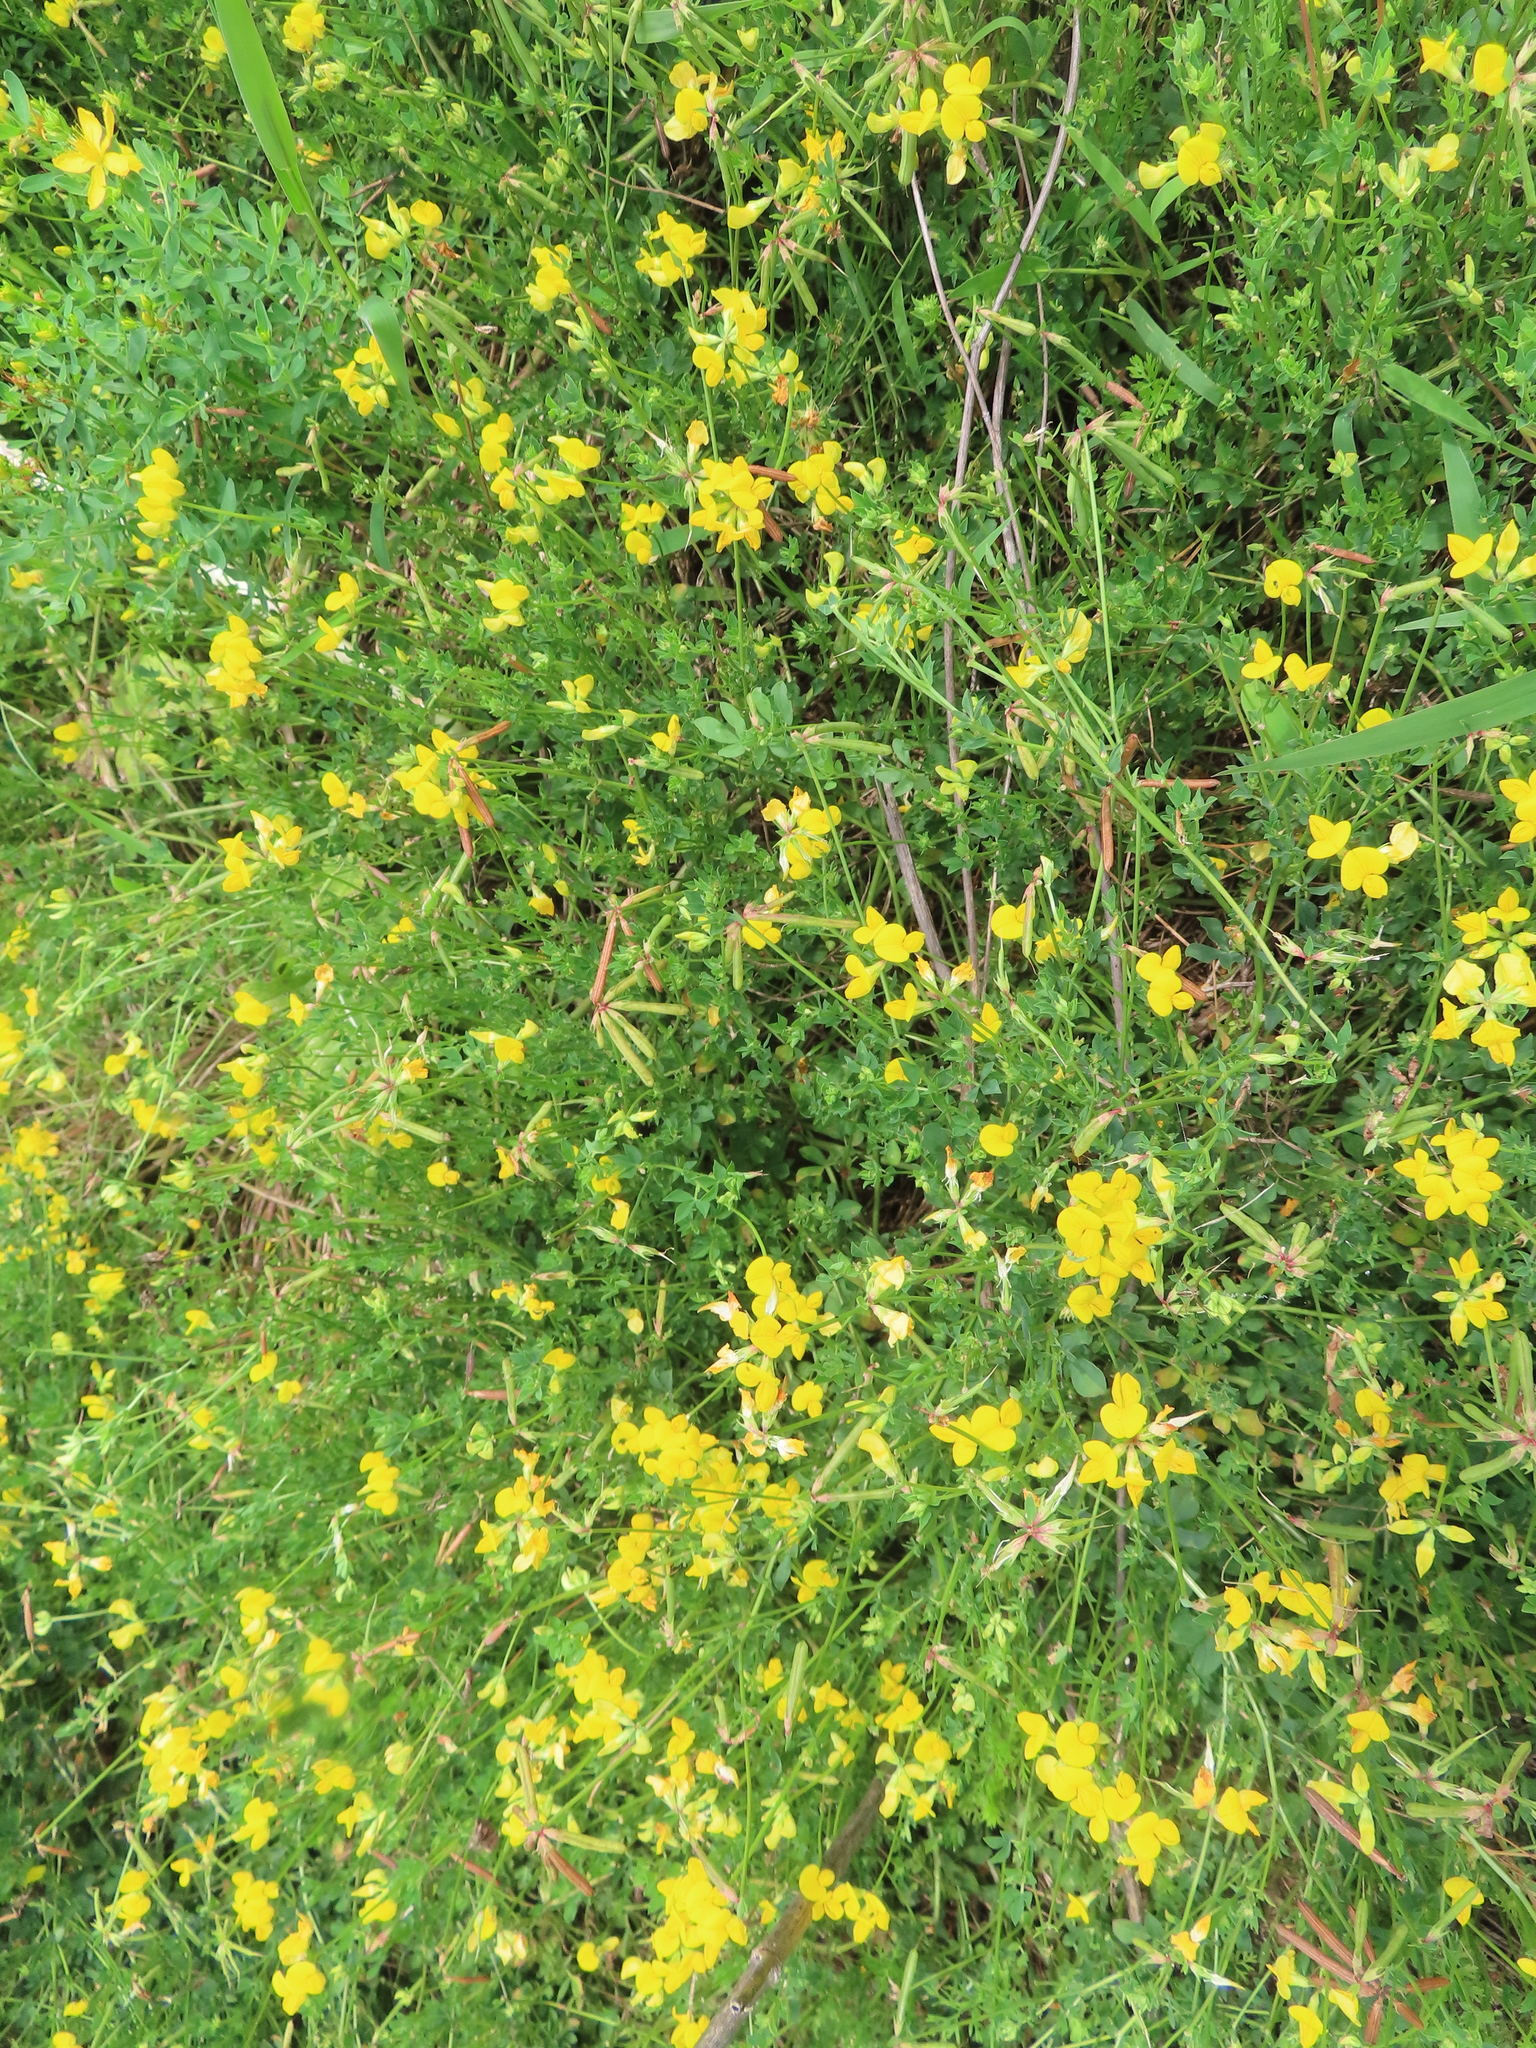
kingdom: Plantae
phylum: Tracheophyta
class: Magnoliopsida
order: Fabales
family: Fabaceae
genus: Lotus
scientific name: Lotus corniculatus
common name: Common bird's-foot-trefoil
